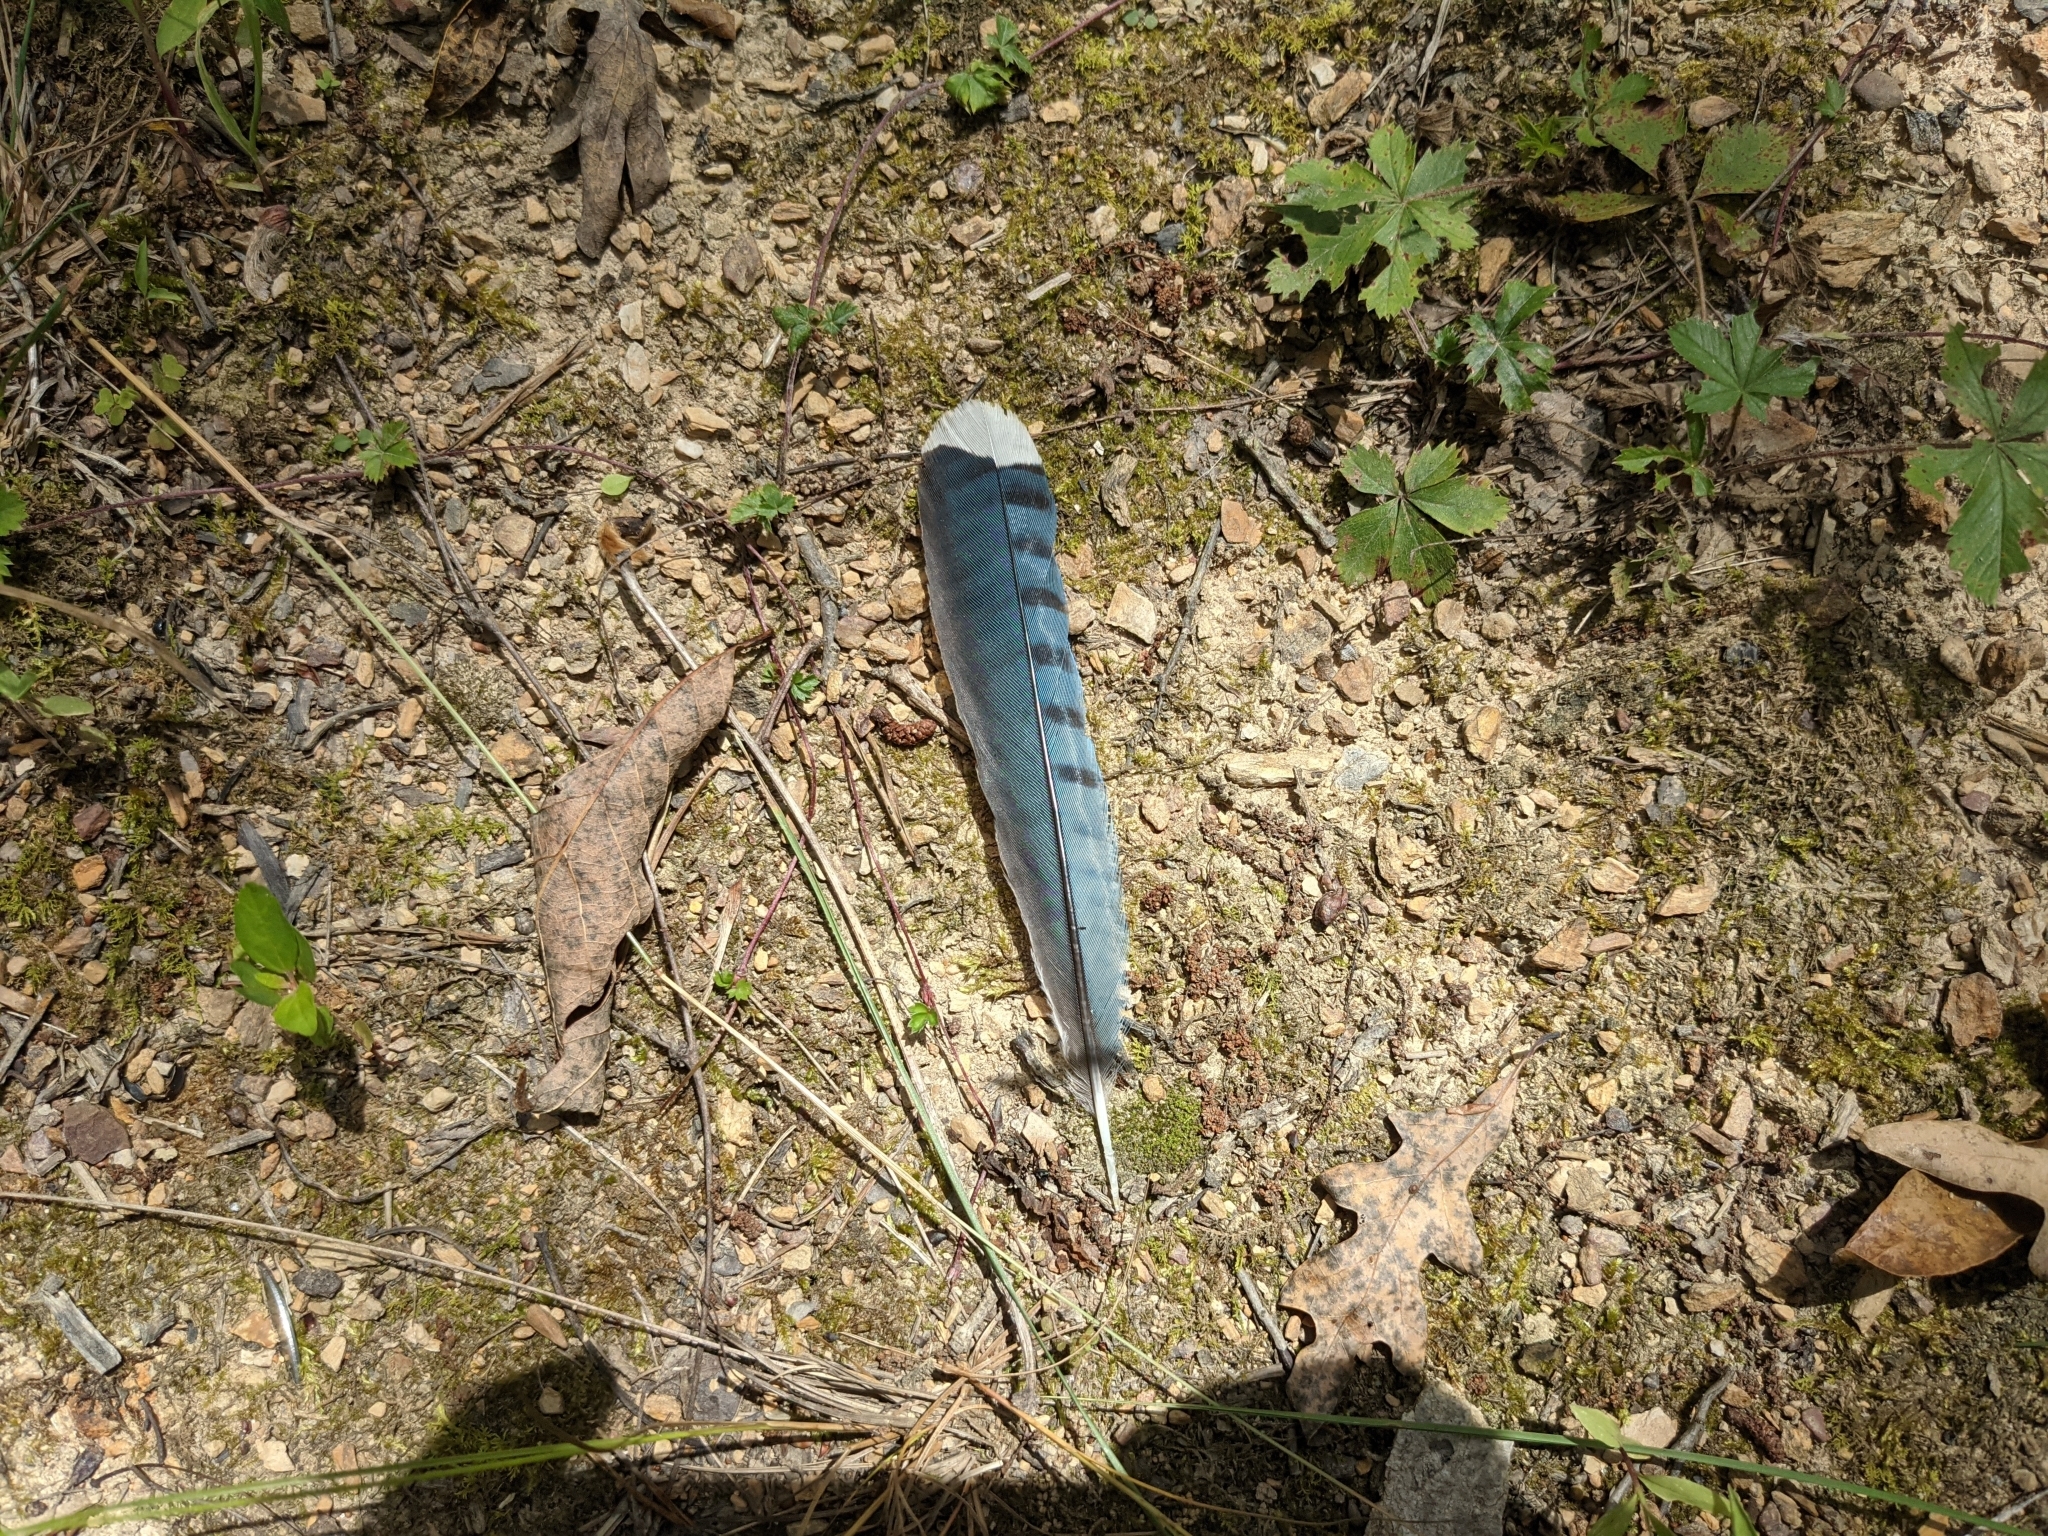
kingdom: Animalia
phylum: Chordata
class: Aves
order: Passeriformes
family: Corvidae
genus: Cyanocitta
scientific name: Cyanocitta cristata
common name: Blue jay
